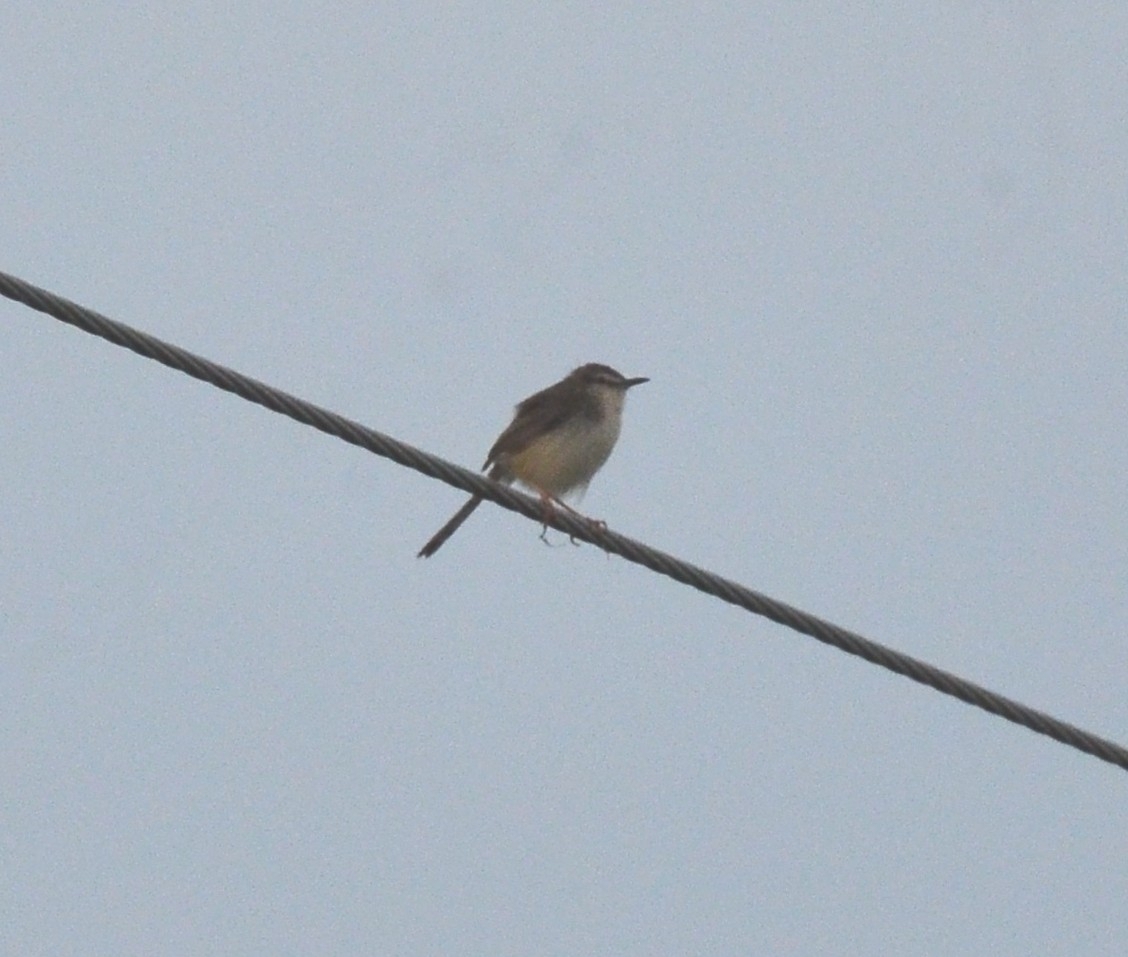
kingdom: Animalia
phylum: Chordata
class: Aves
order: Passeriformes
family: Cisticolidae
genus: Prinia
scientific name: Prinia inornata
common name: Plain prinia
